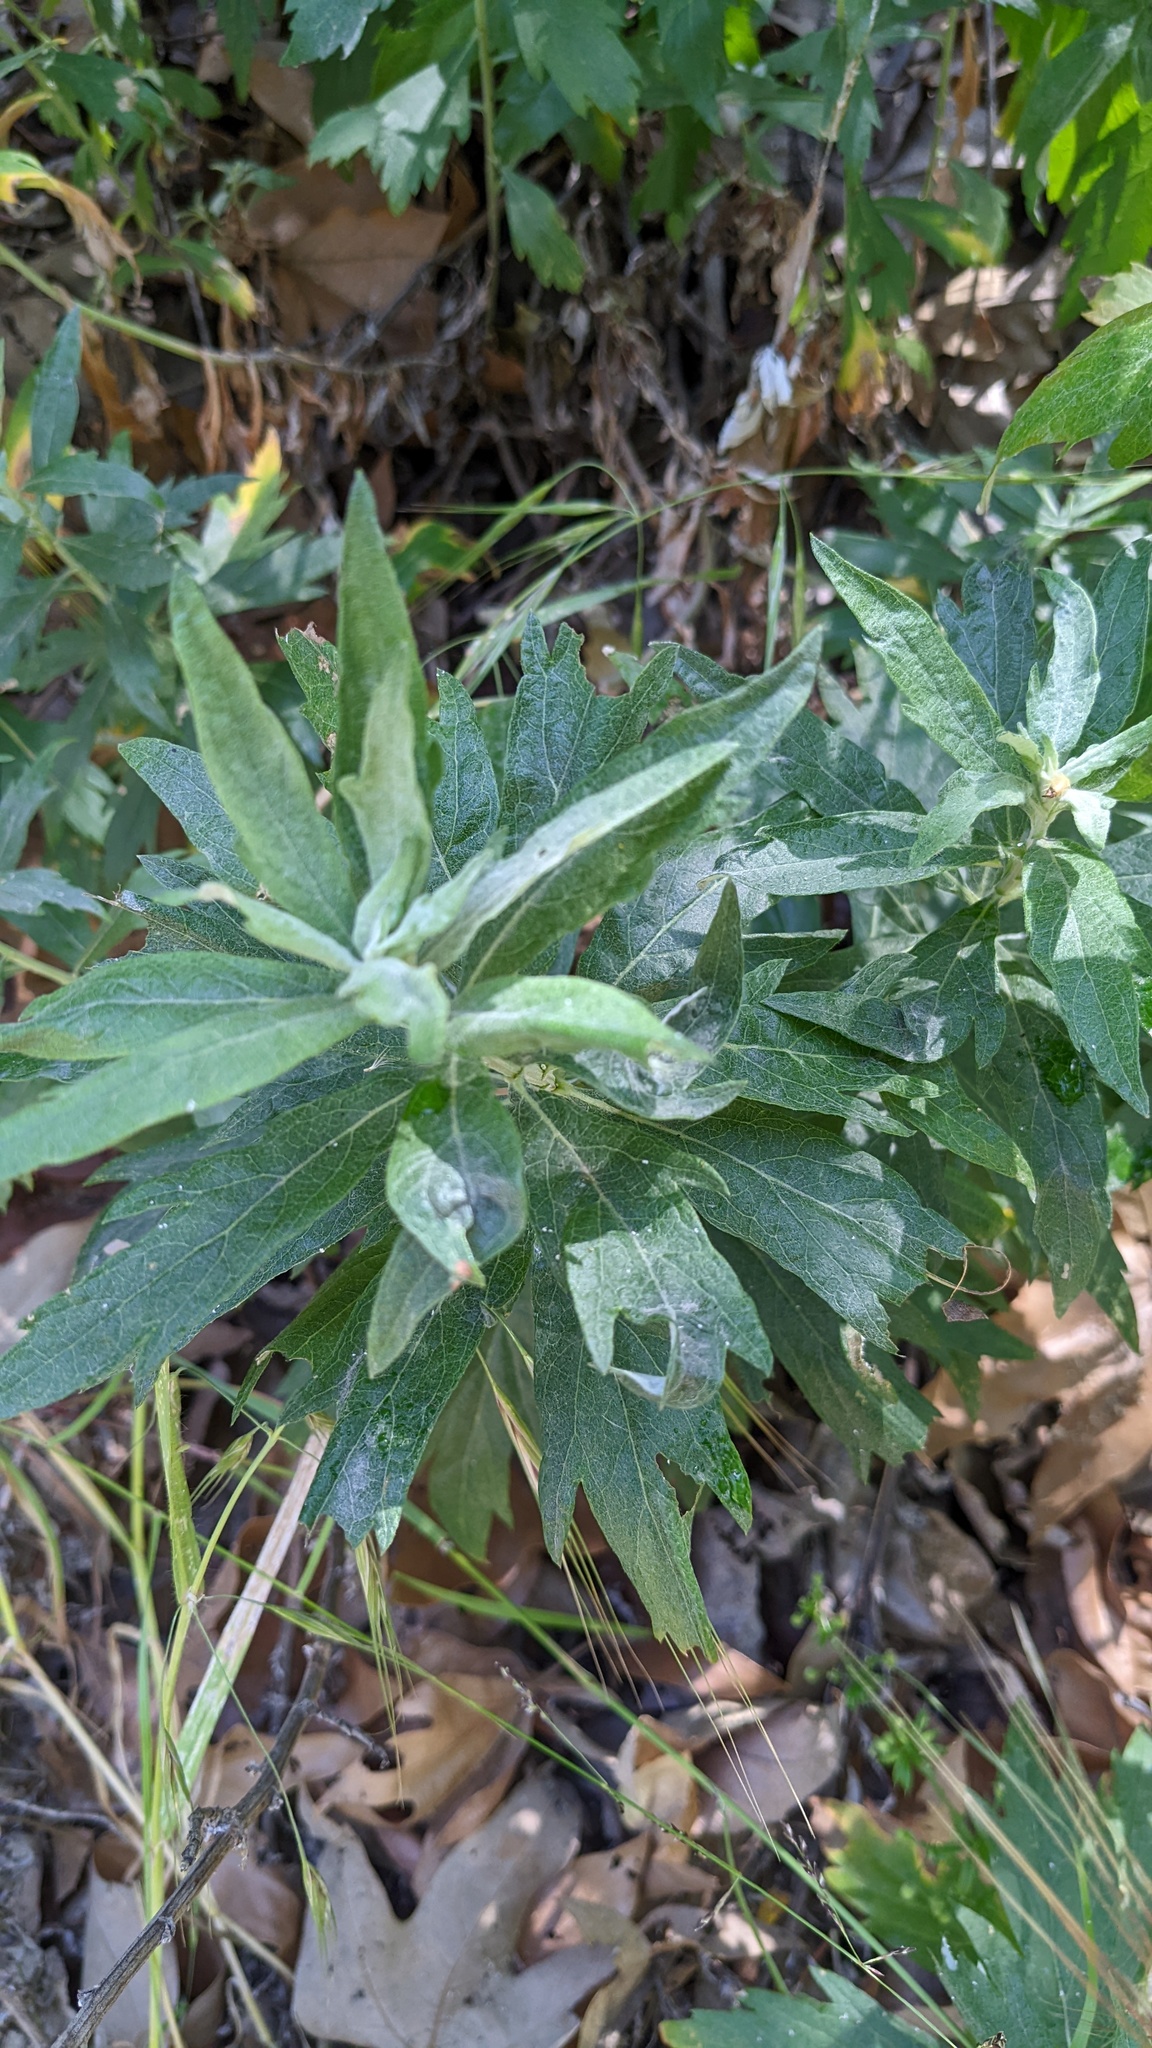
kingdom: Plantae
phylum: Tracheophyta
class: Magnoliopsida
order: Asterales
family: Asteraceae
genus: Artemisia
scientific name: Artemisia douglasiana
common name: Northwest mugwort
